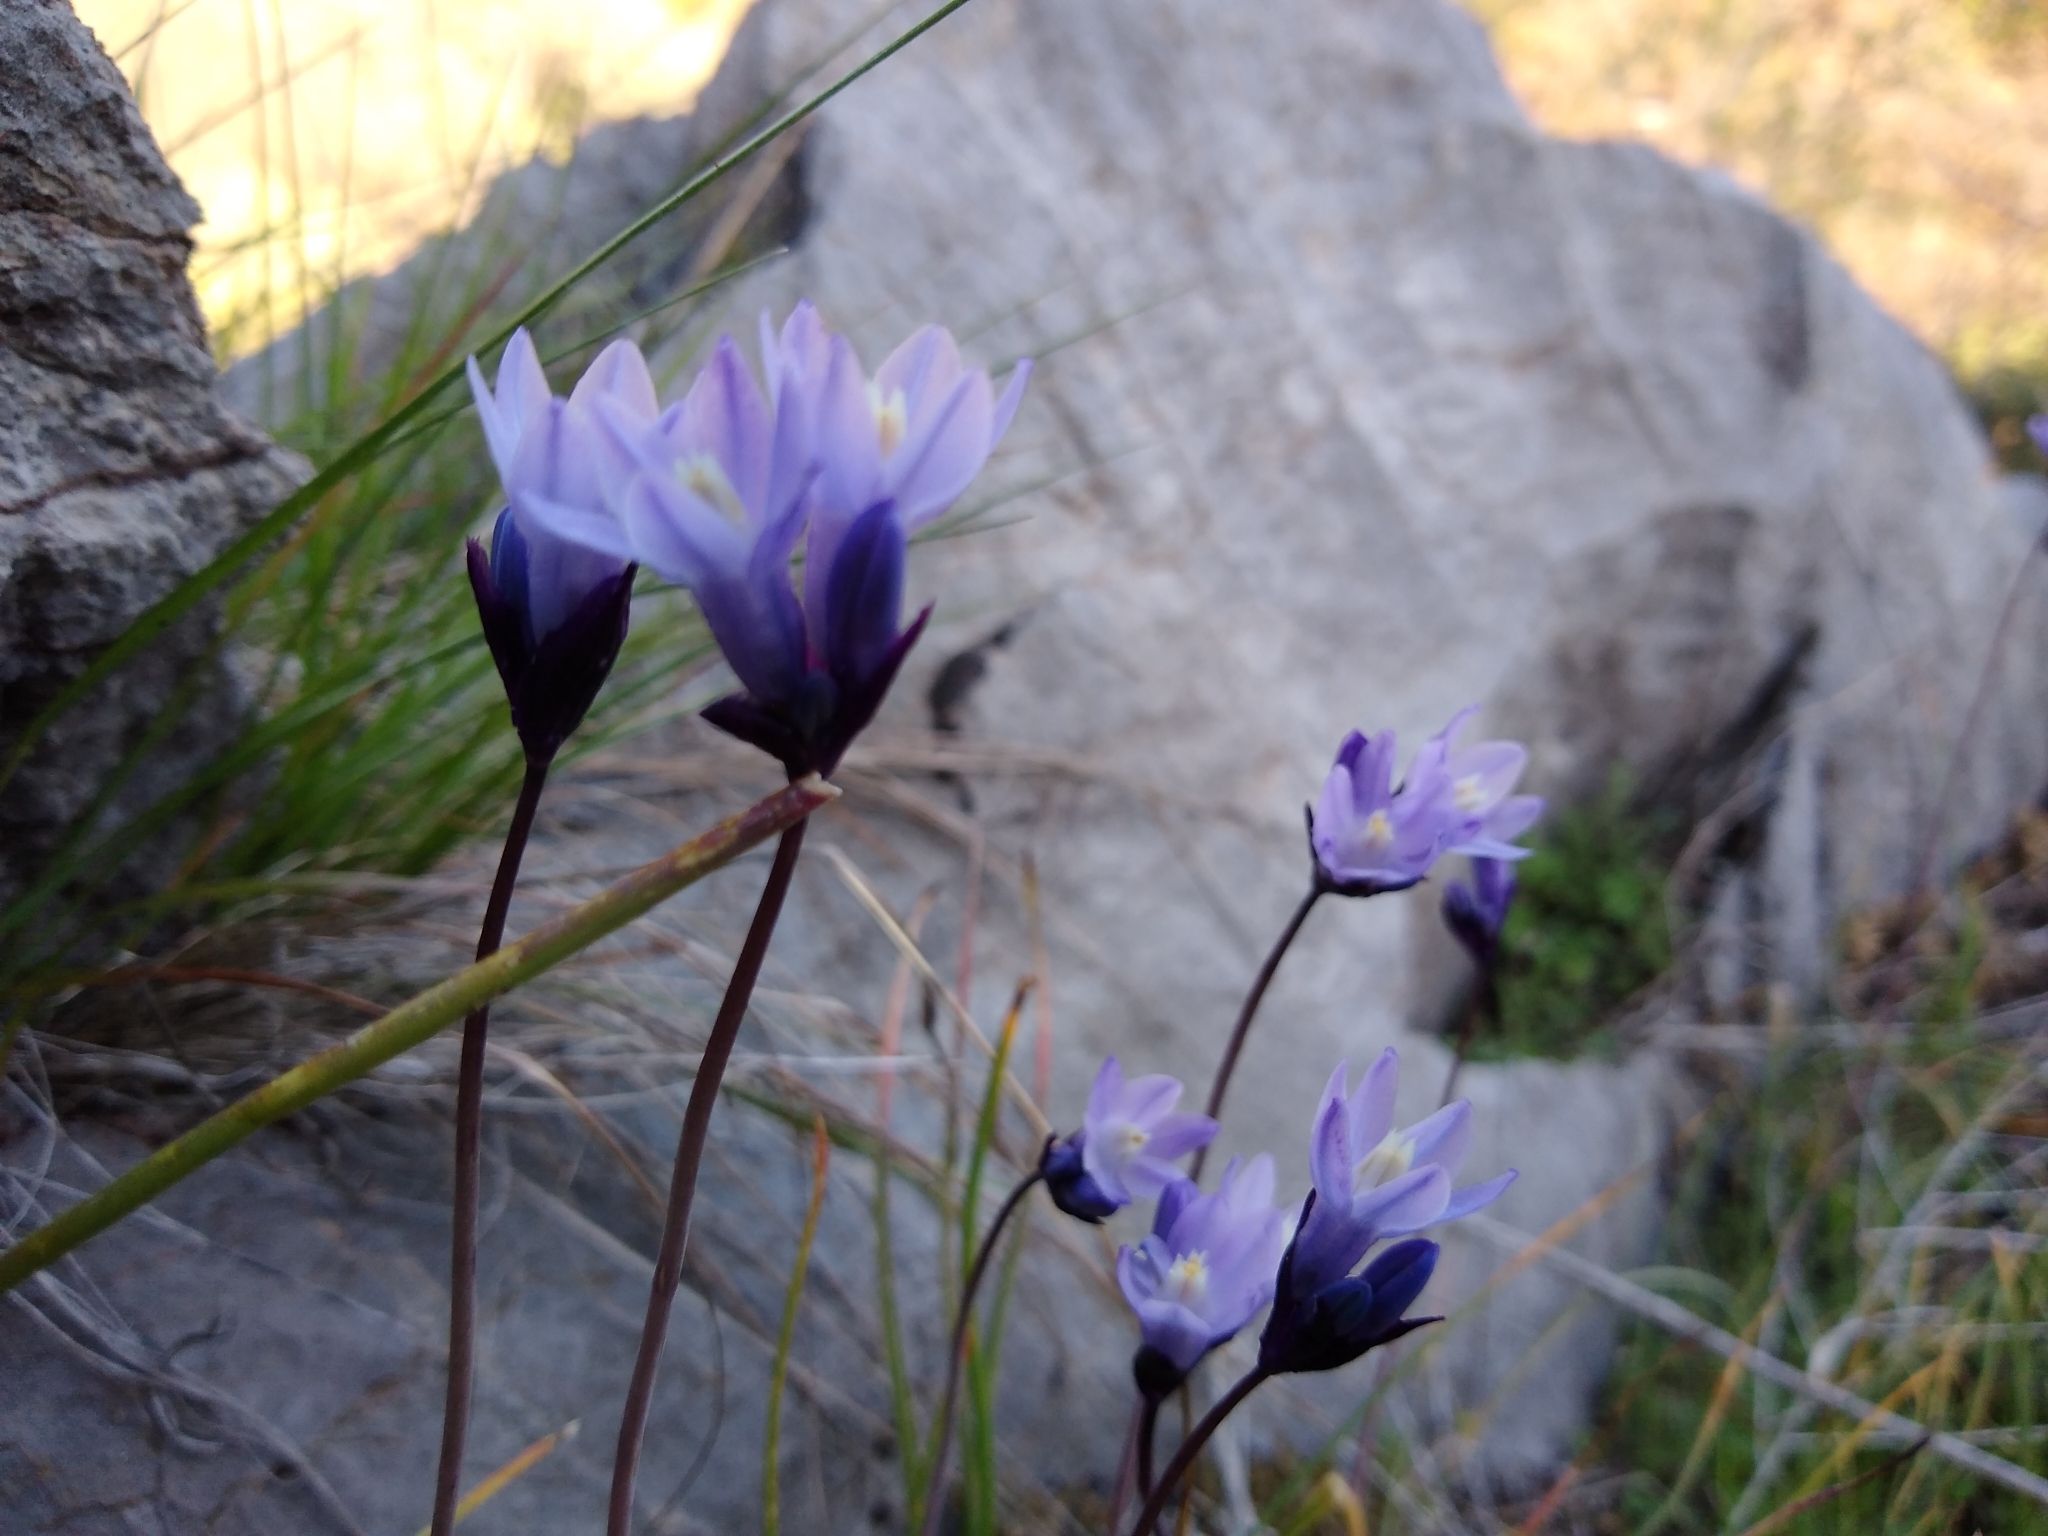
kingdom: Plantae
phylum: Tracheophyta
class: Liliopsida
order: Asparagales
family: Asparagaceae
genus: Dipterostemon
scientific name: Dipterostemon capitatus
